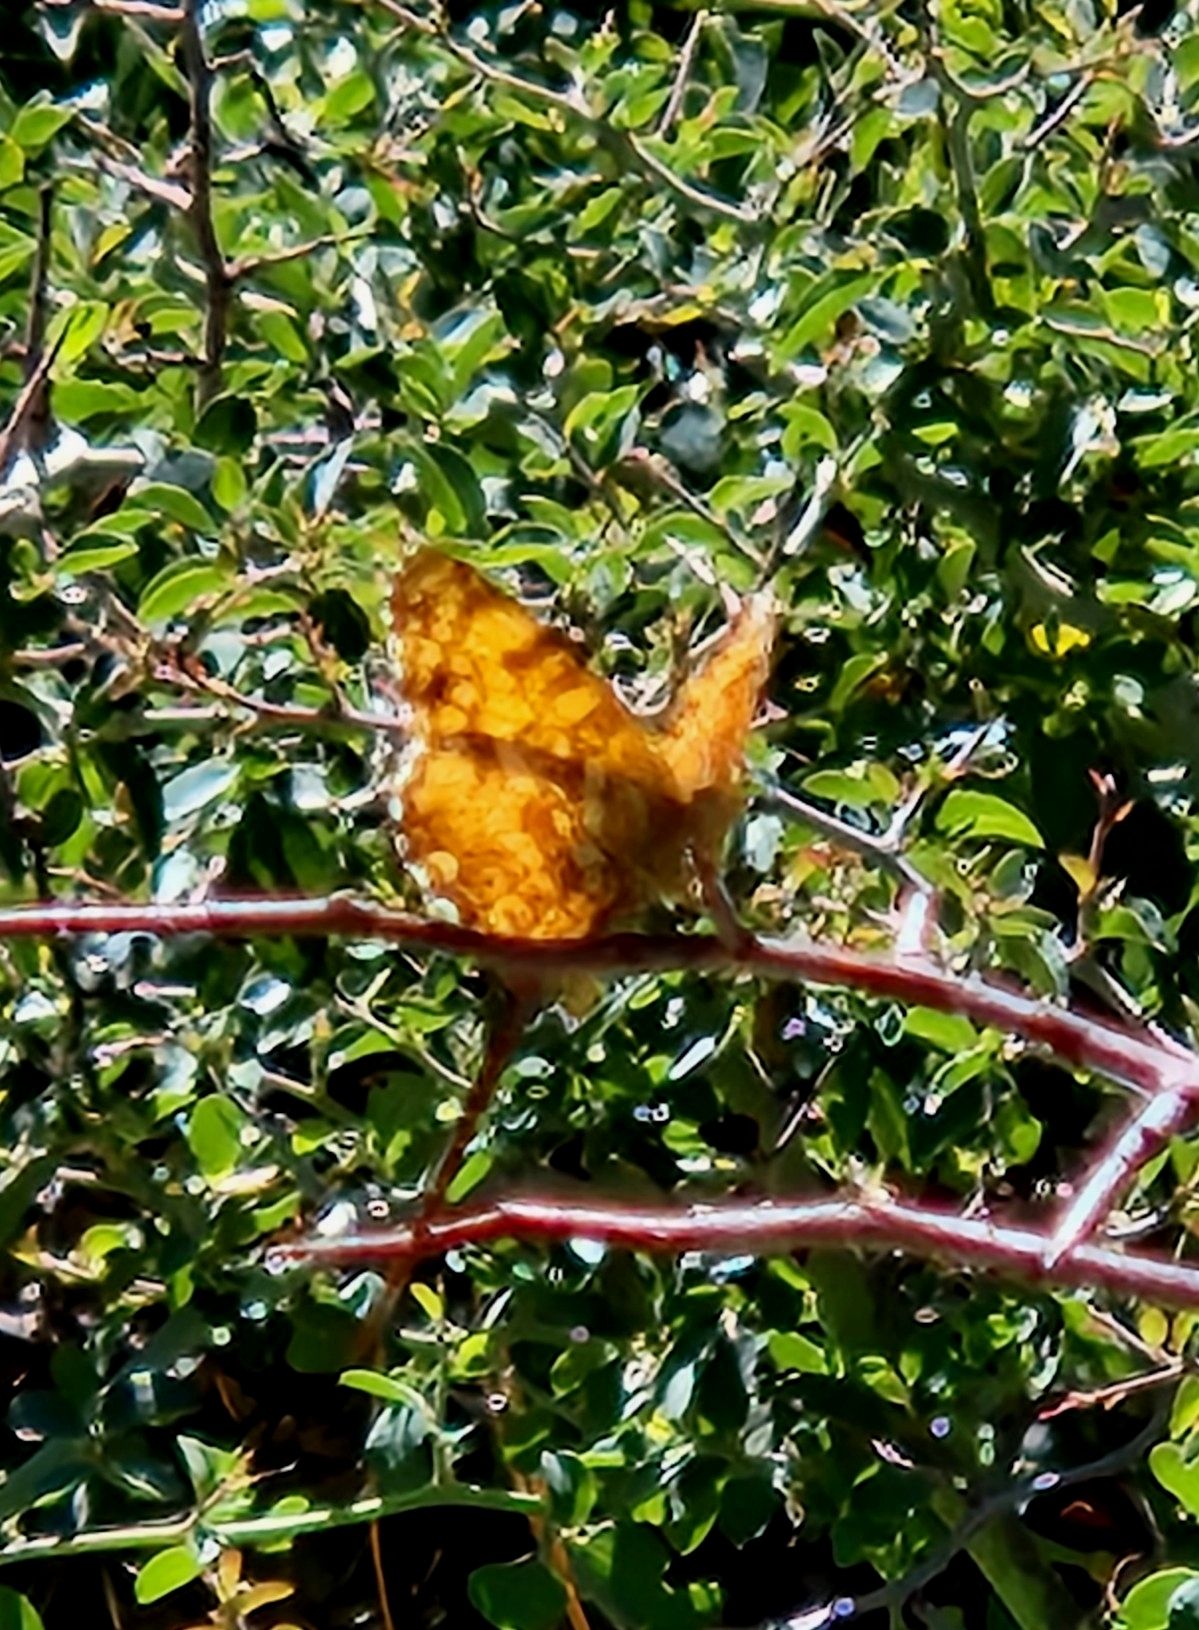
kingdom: Animalia
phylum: Arthropoda
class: Insecta
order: Lepidoptera
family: Nymphalidae
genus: Eresia
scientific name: Eresia aveyrona
